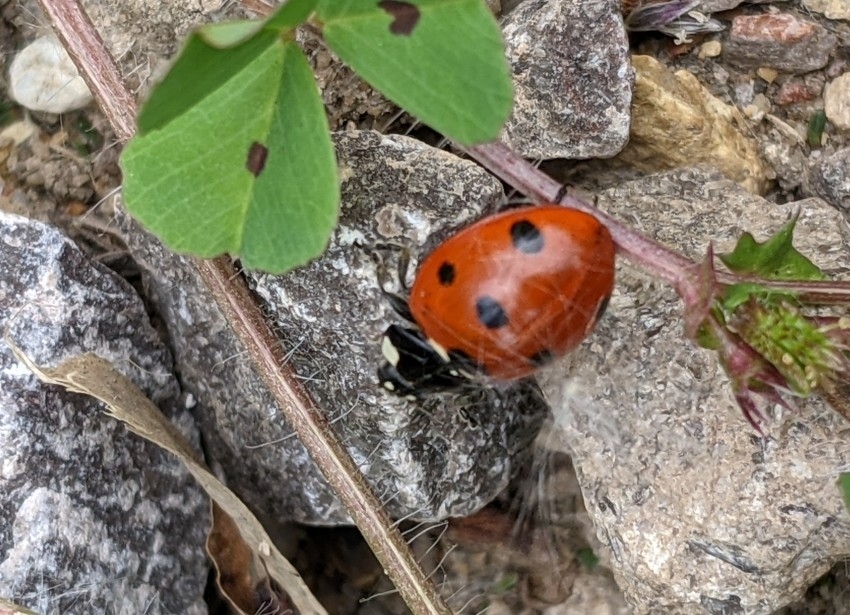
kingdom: Animalia
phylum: Arthropoda
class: Insecta
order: Coleoptera
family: Coccinellidae
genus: Coccinella
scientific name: Coccinella septempunctata
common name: Sevenspotted lady beetle
